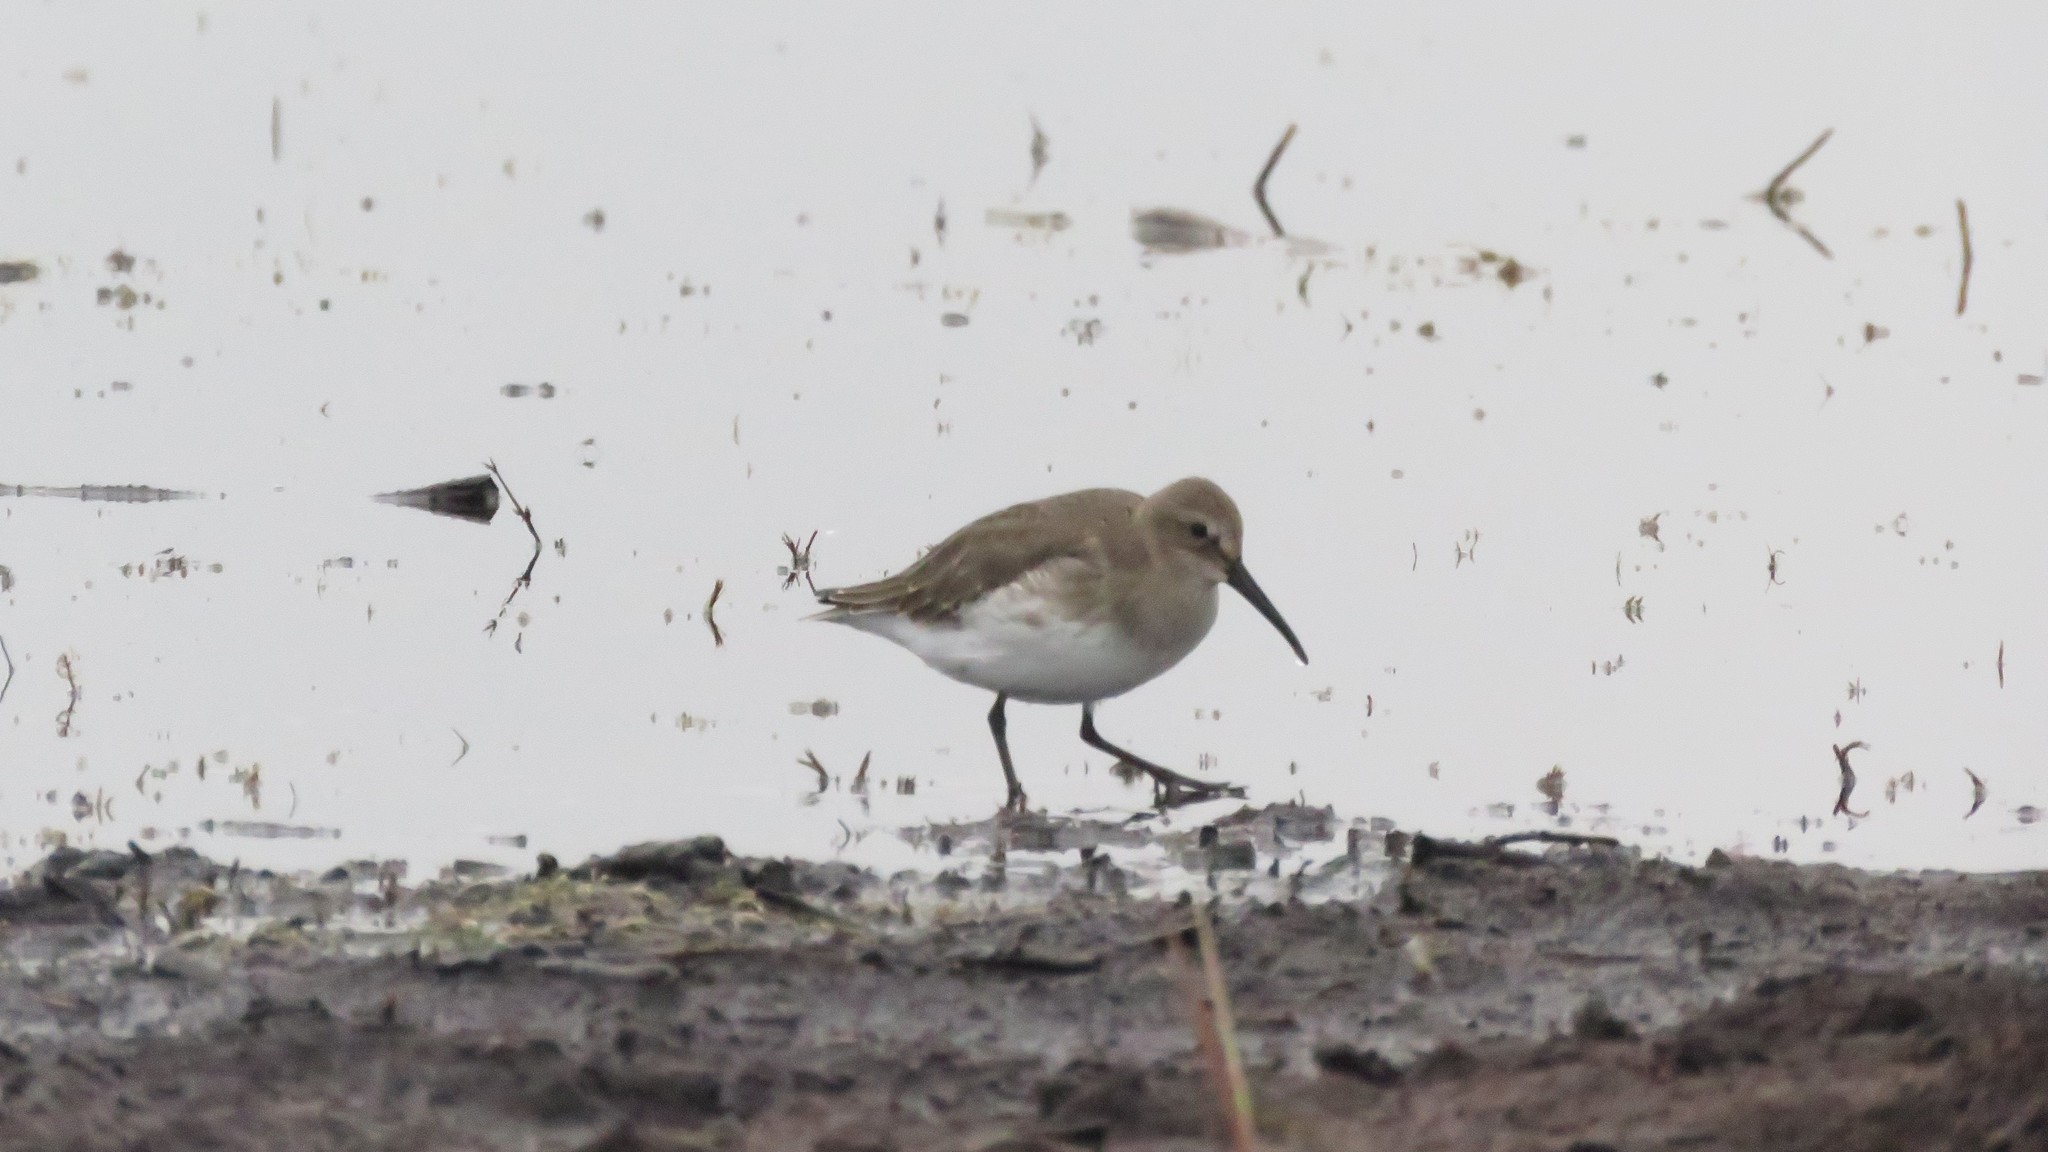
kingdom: Animalia
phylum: Chordata
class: Aves
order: Charadriiformes
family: Scolopacidae
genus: Calidris
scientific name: Calidris alpina
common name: Dunlin
